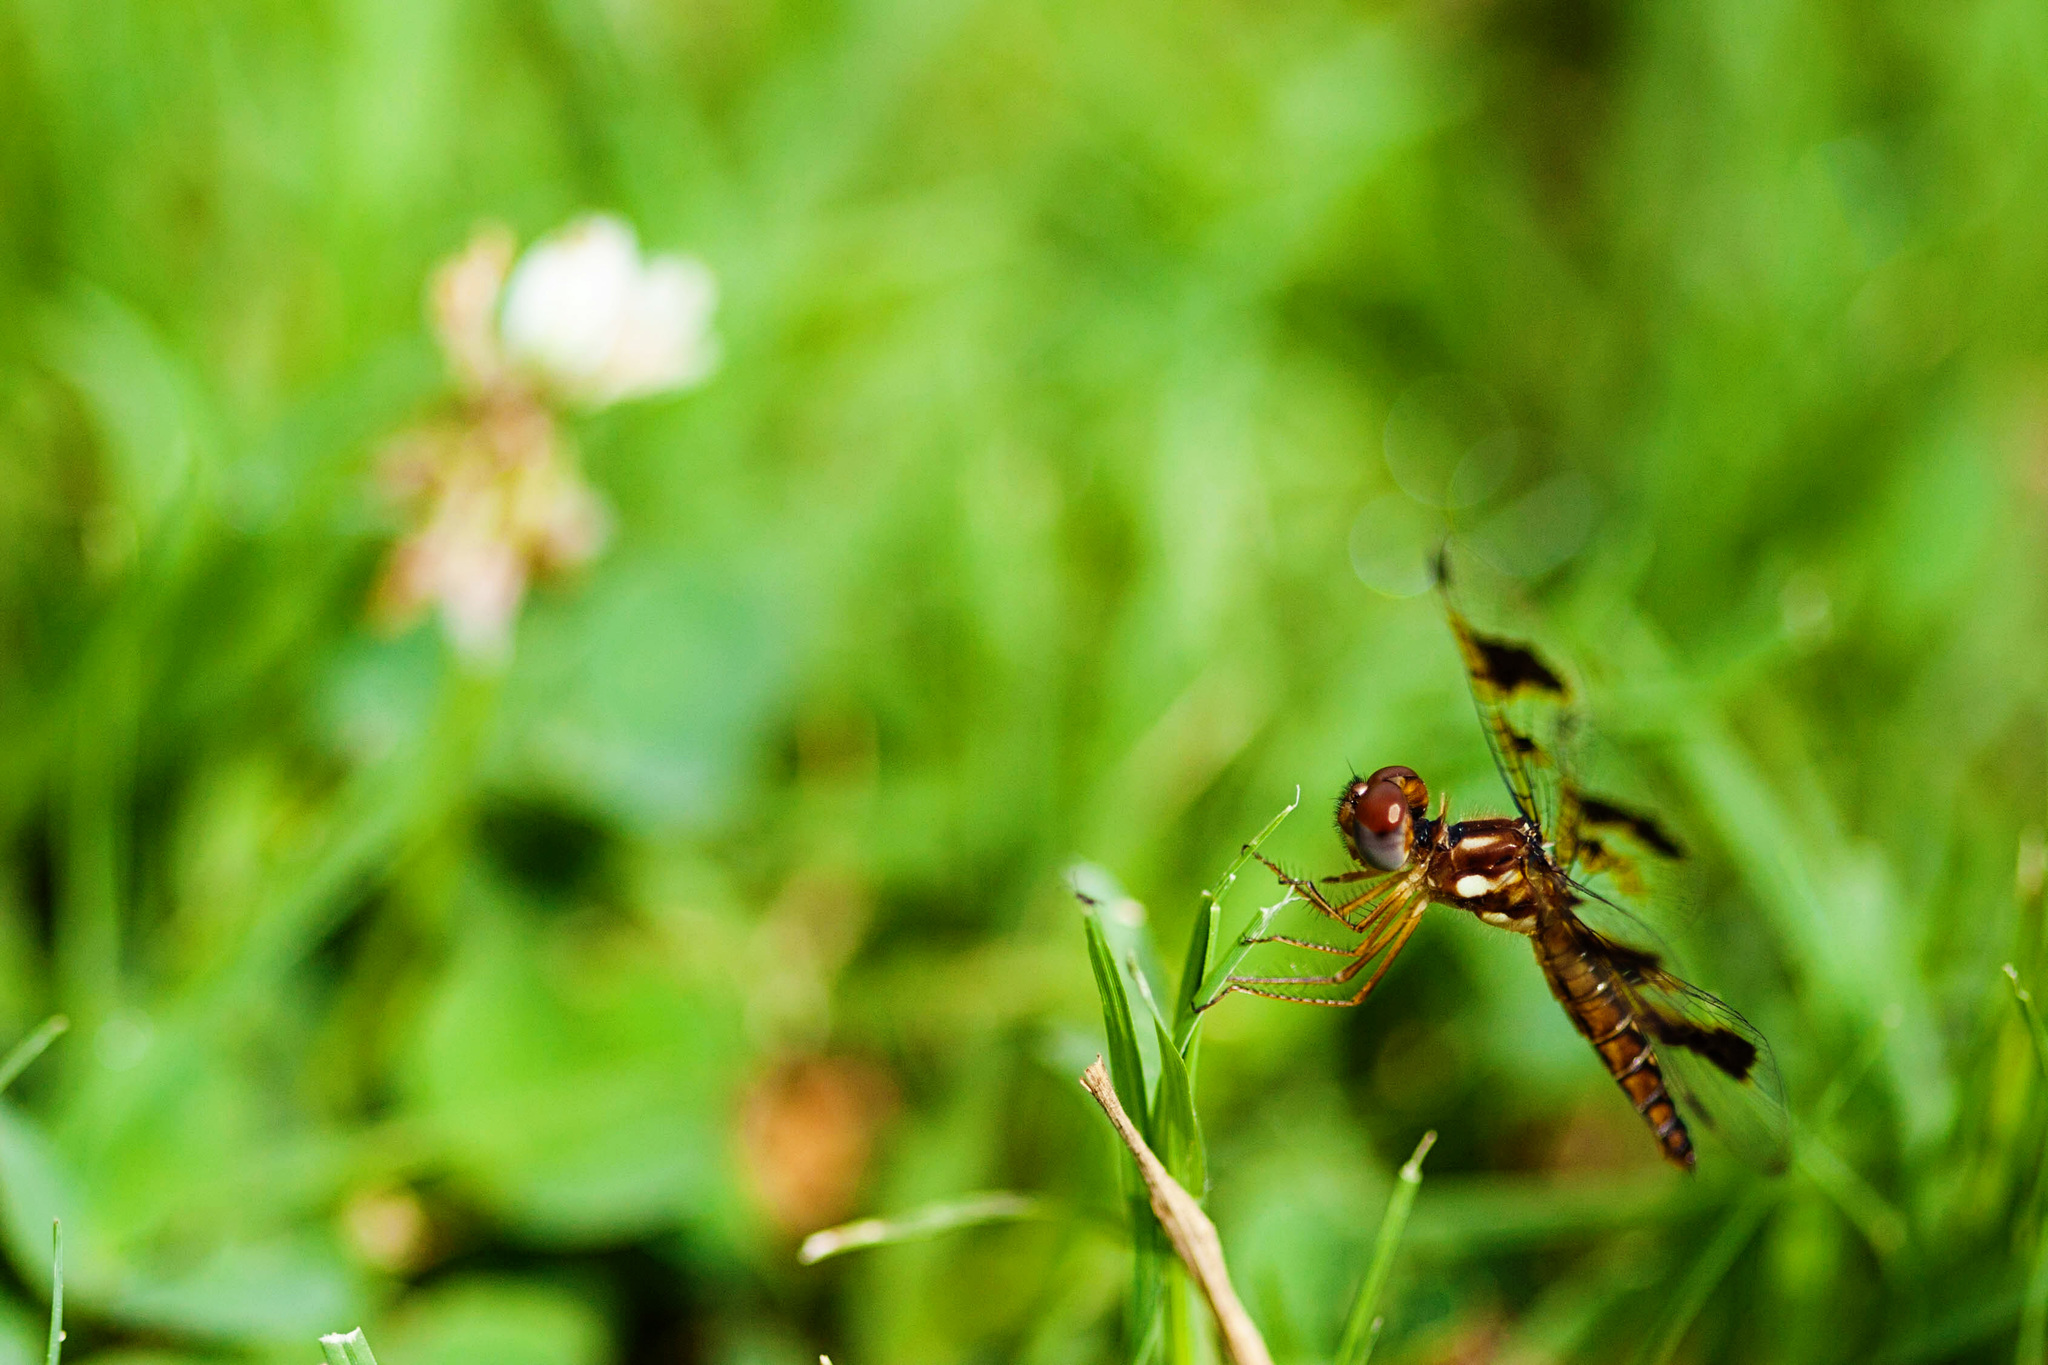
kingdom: Animalia
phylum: Arthropoda
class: Insecta
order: Odonata
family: Libellulidae
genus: Perithemis
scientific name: Perithemis tenera
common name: Eastern amberwing
